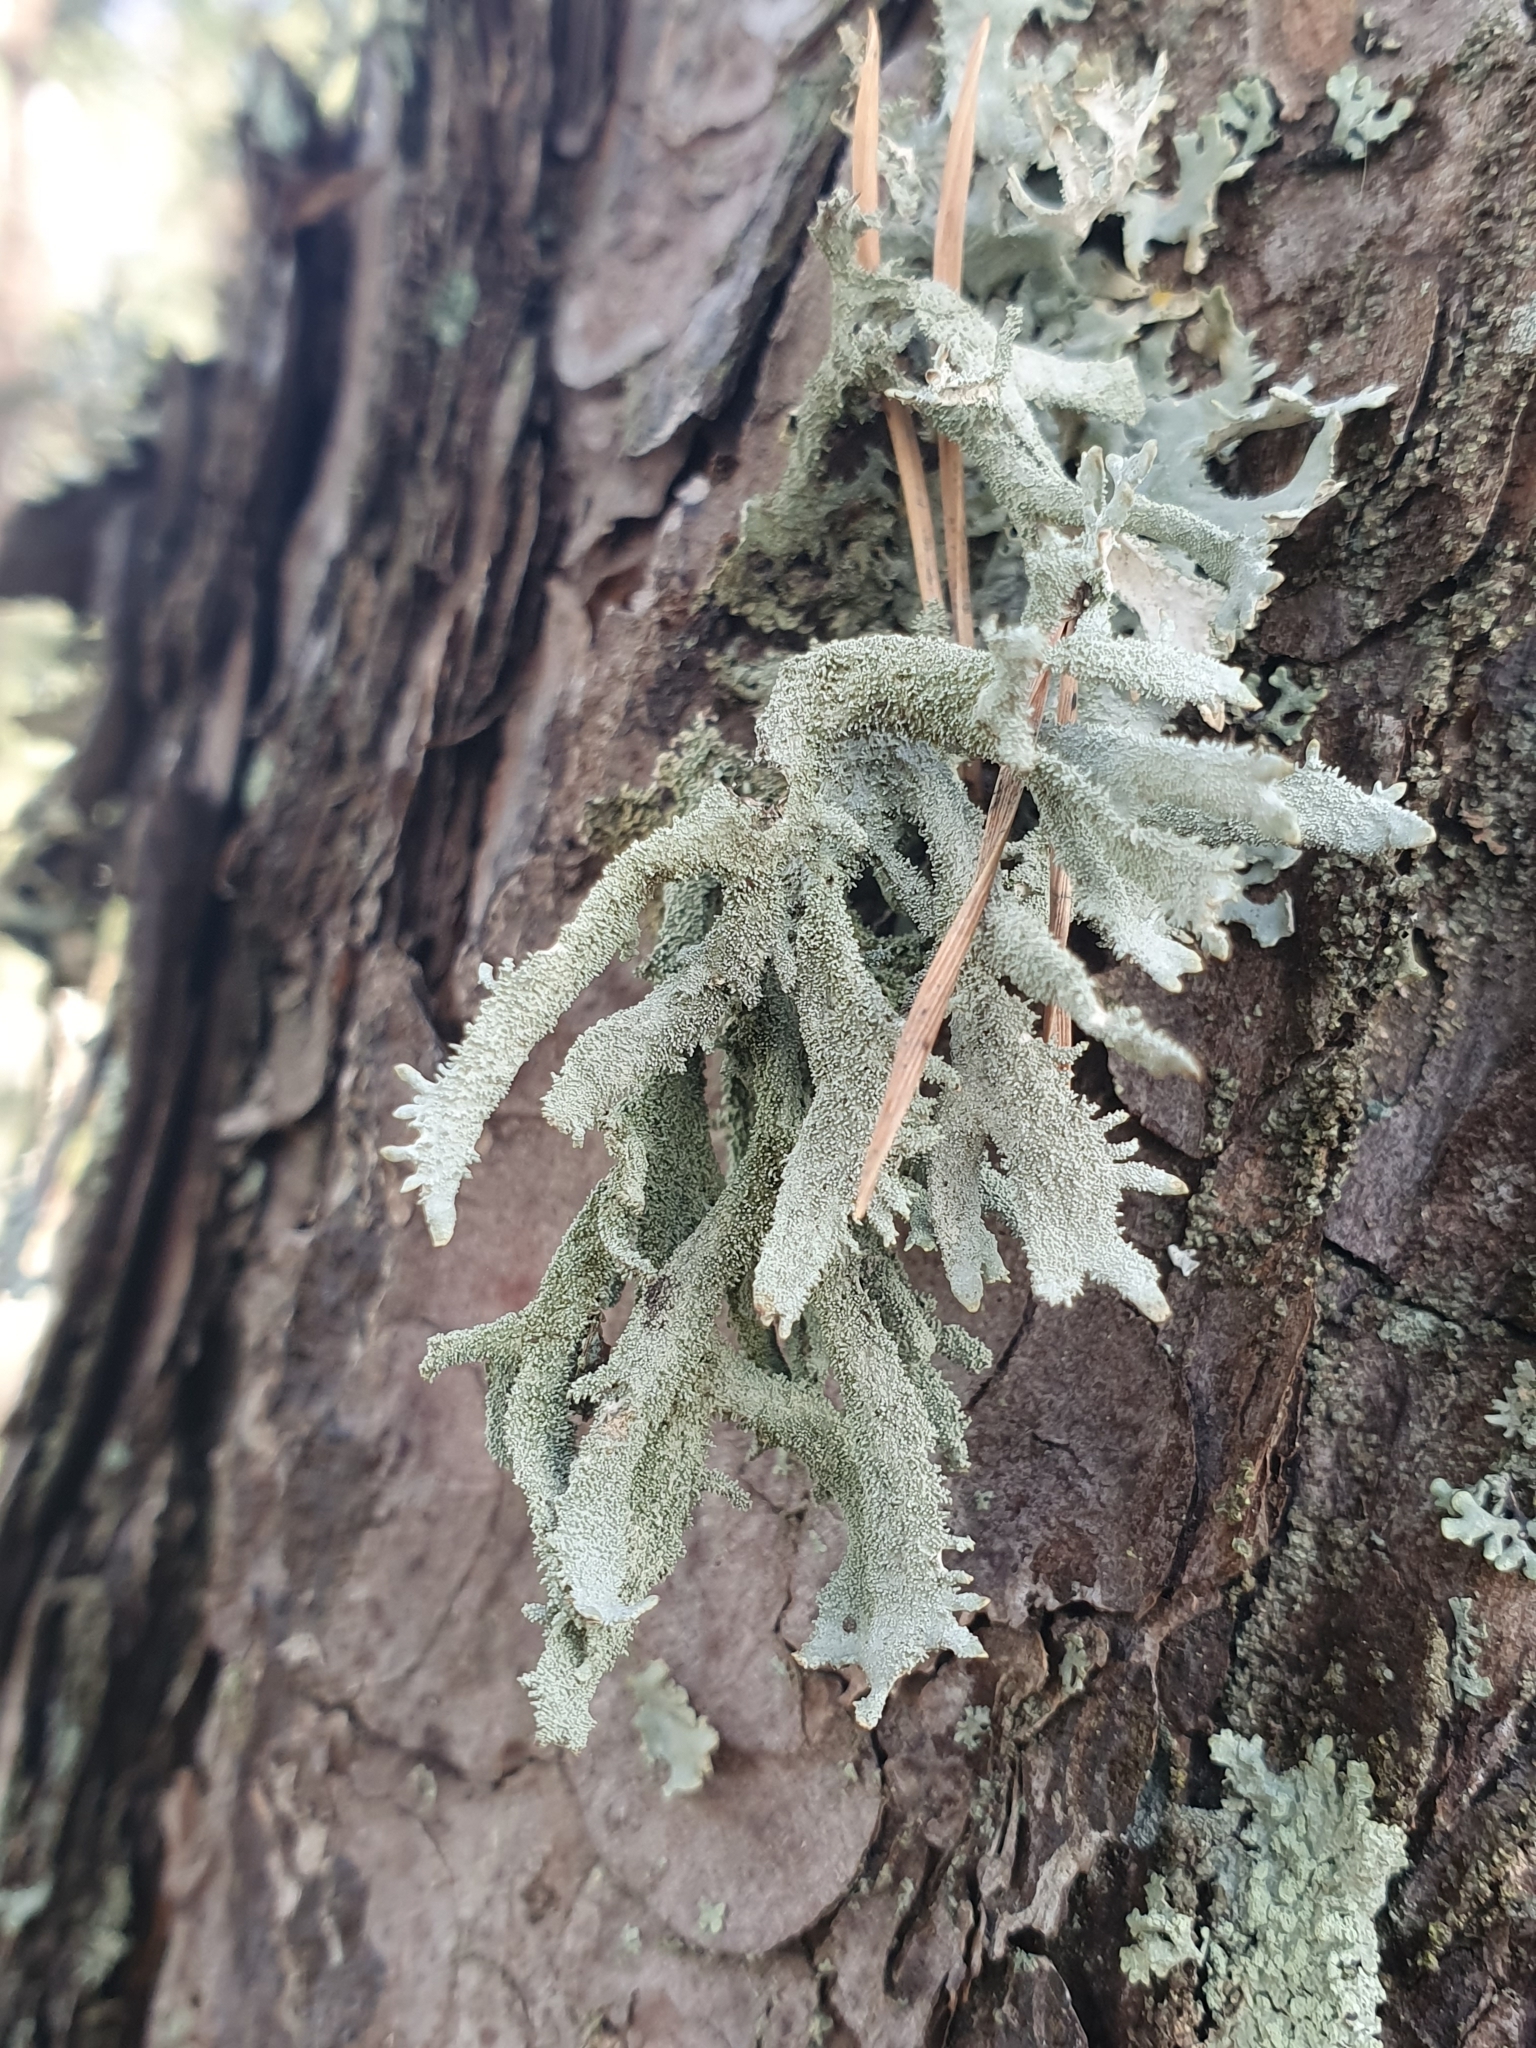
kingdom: Fungi
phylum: Ascomycota
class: Lecanoromycetes
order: Lecanorales
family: Parmeliaceae
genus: Pseudevernia
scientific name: Pseudevernia furfuracea
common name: Tree moss
